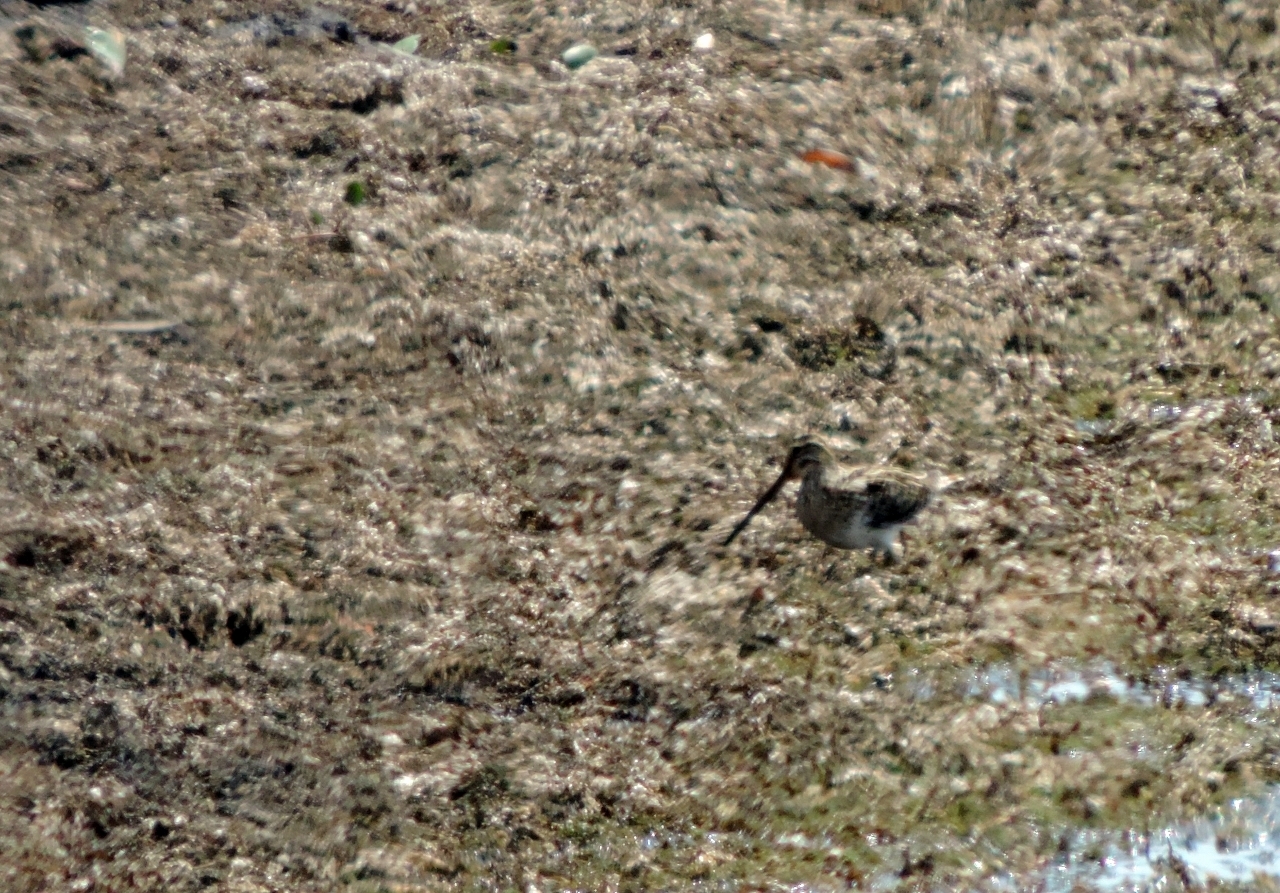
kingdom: Animalia
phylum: Chordata
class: Aves
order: Charadriiformes
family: Scolopacidae
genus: Gallinago
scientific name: Gallinago nigripennis
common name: African snipe
